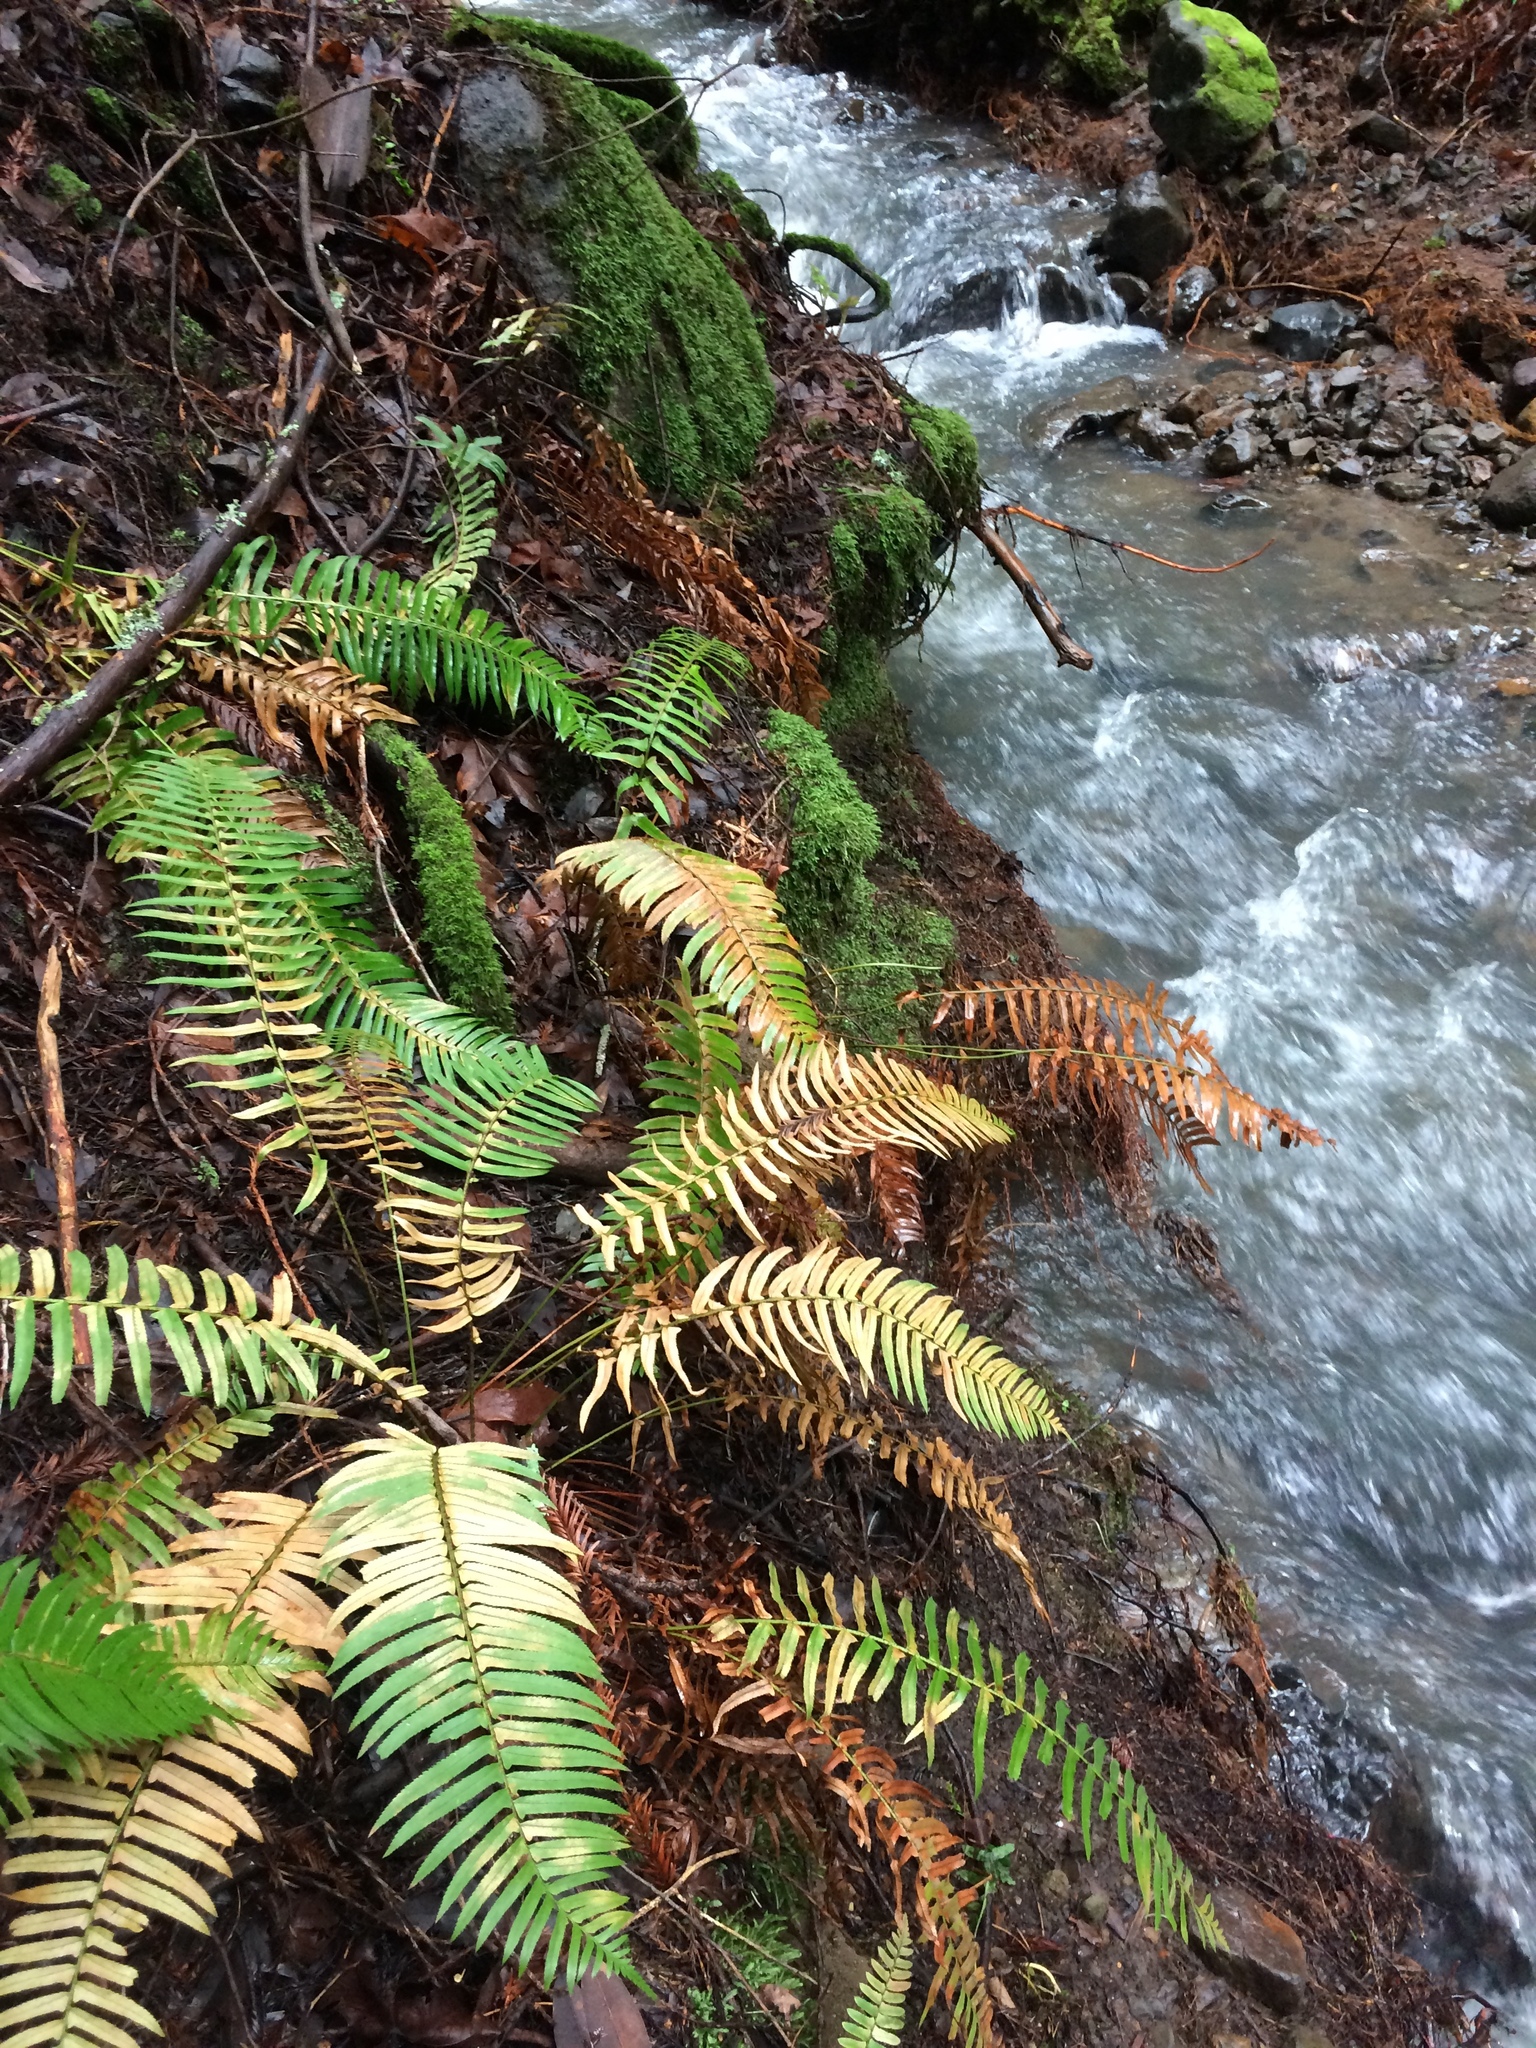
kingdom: Plantae
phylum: Tracheophyta
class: Polypodiopsida
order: Polypodiales
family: Dryopteridaceae
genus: Polystichum
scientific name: Polystichum munitum
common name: Western sword-fern
